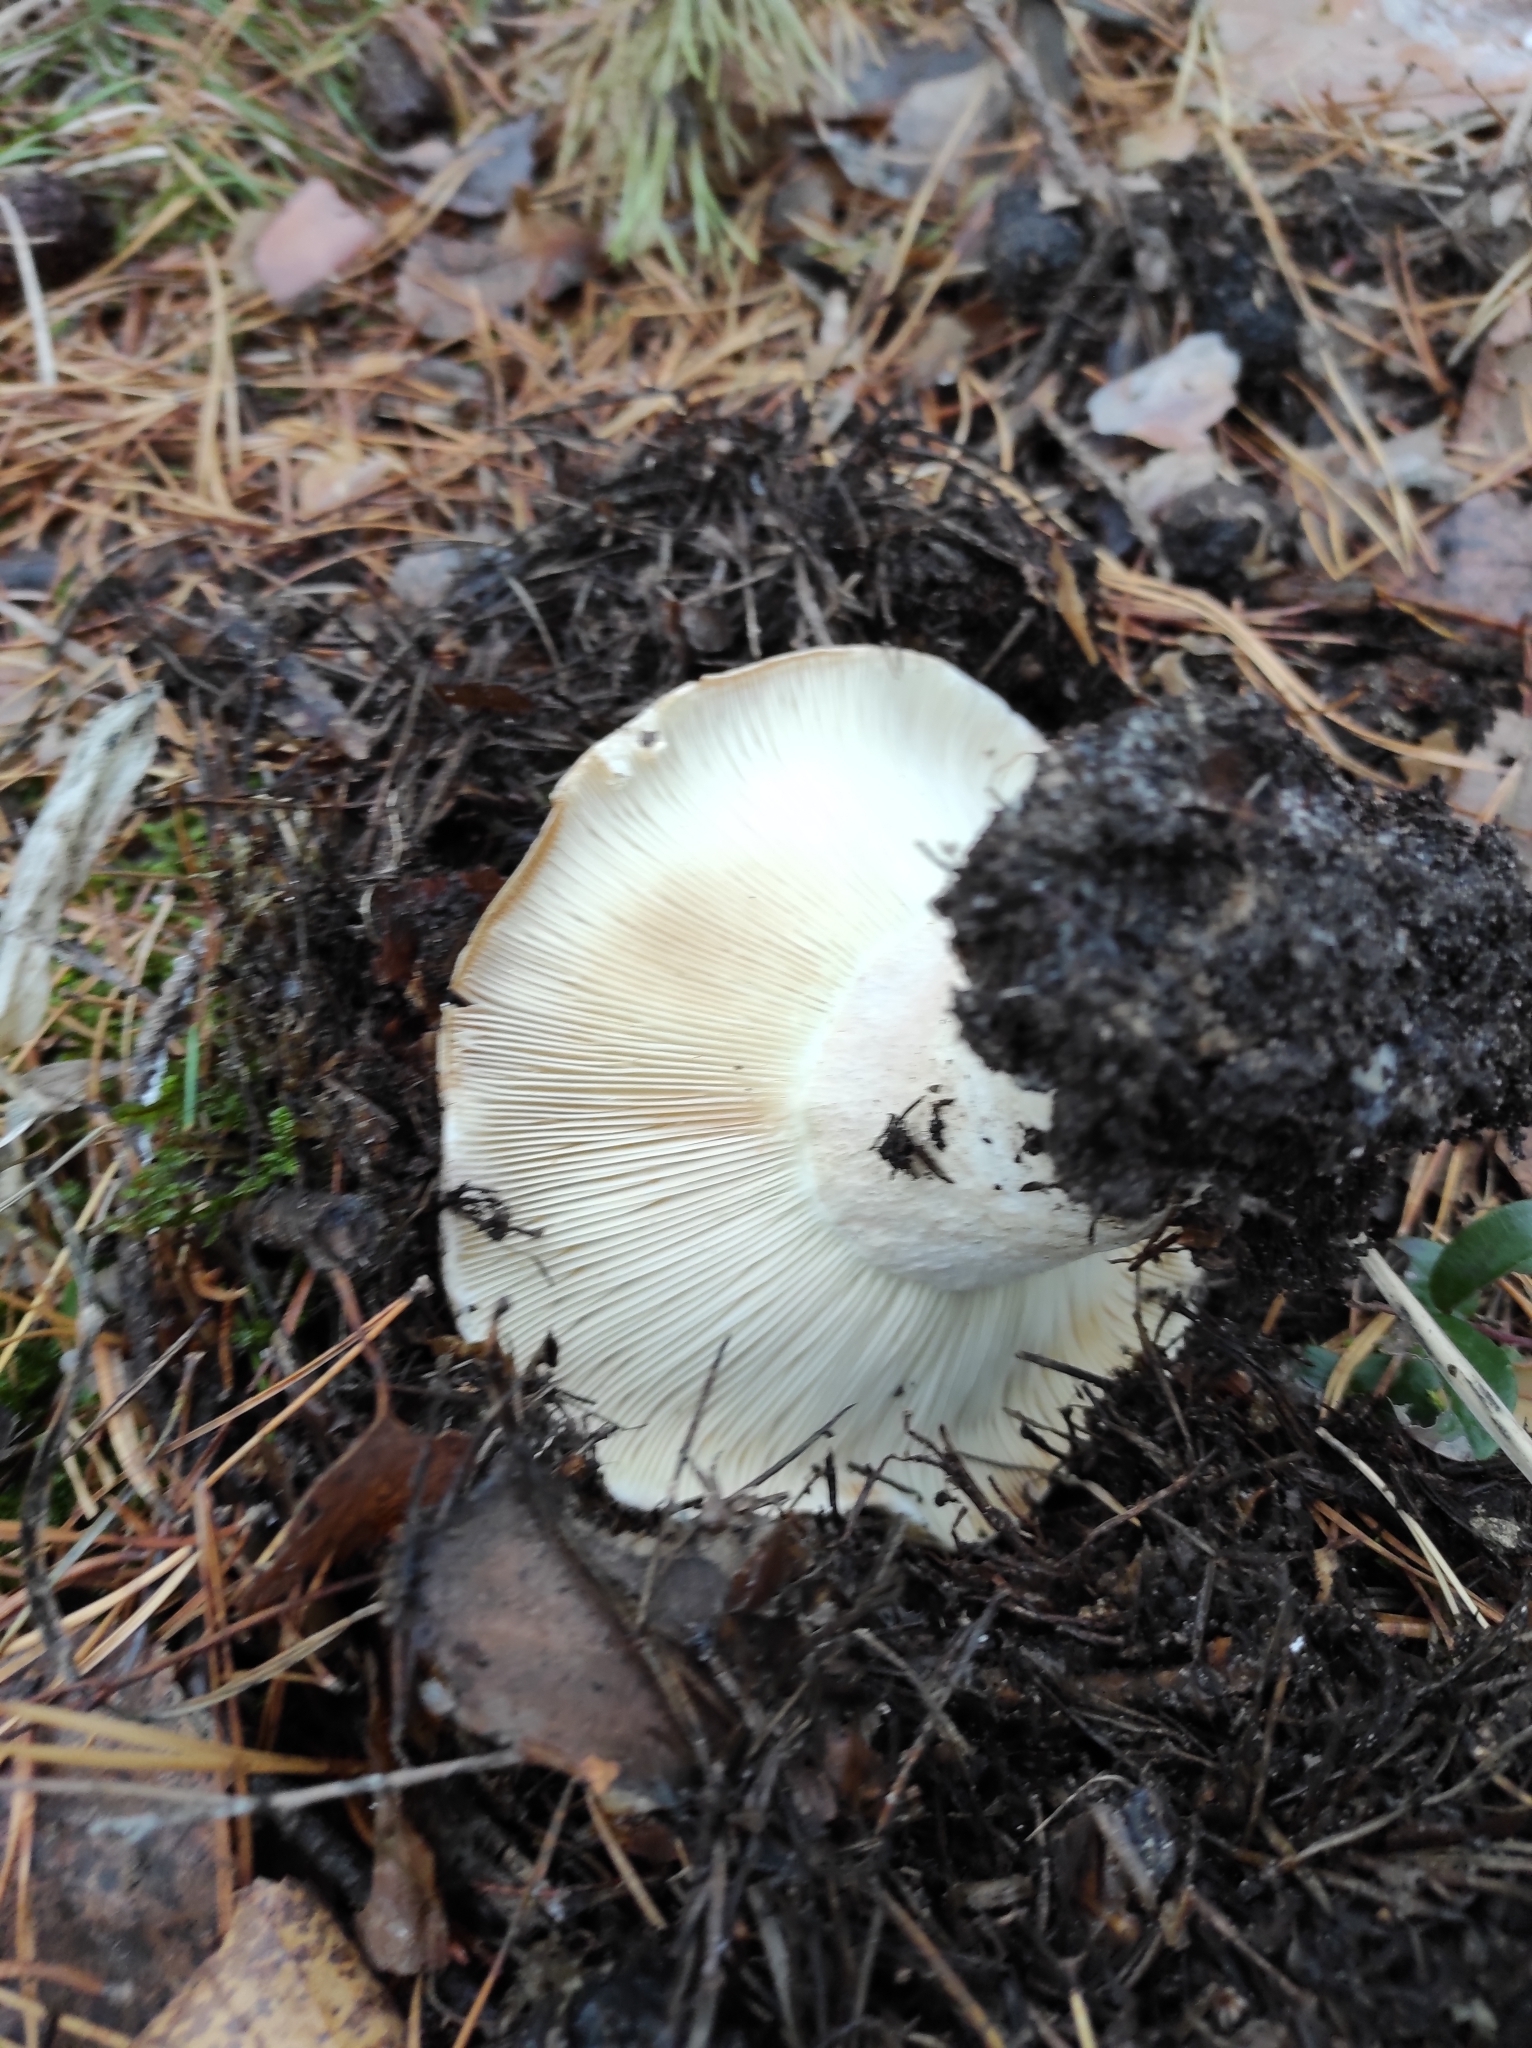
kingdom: Fungi
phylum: Basidiomycota
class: Agaricomycetes
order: Russulales
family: Russulaceae
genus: Russula
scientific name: Russula delica
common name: Milk white brittlegill
